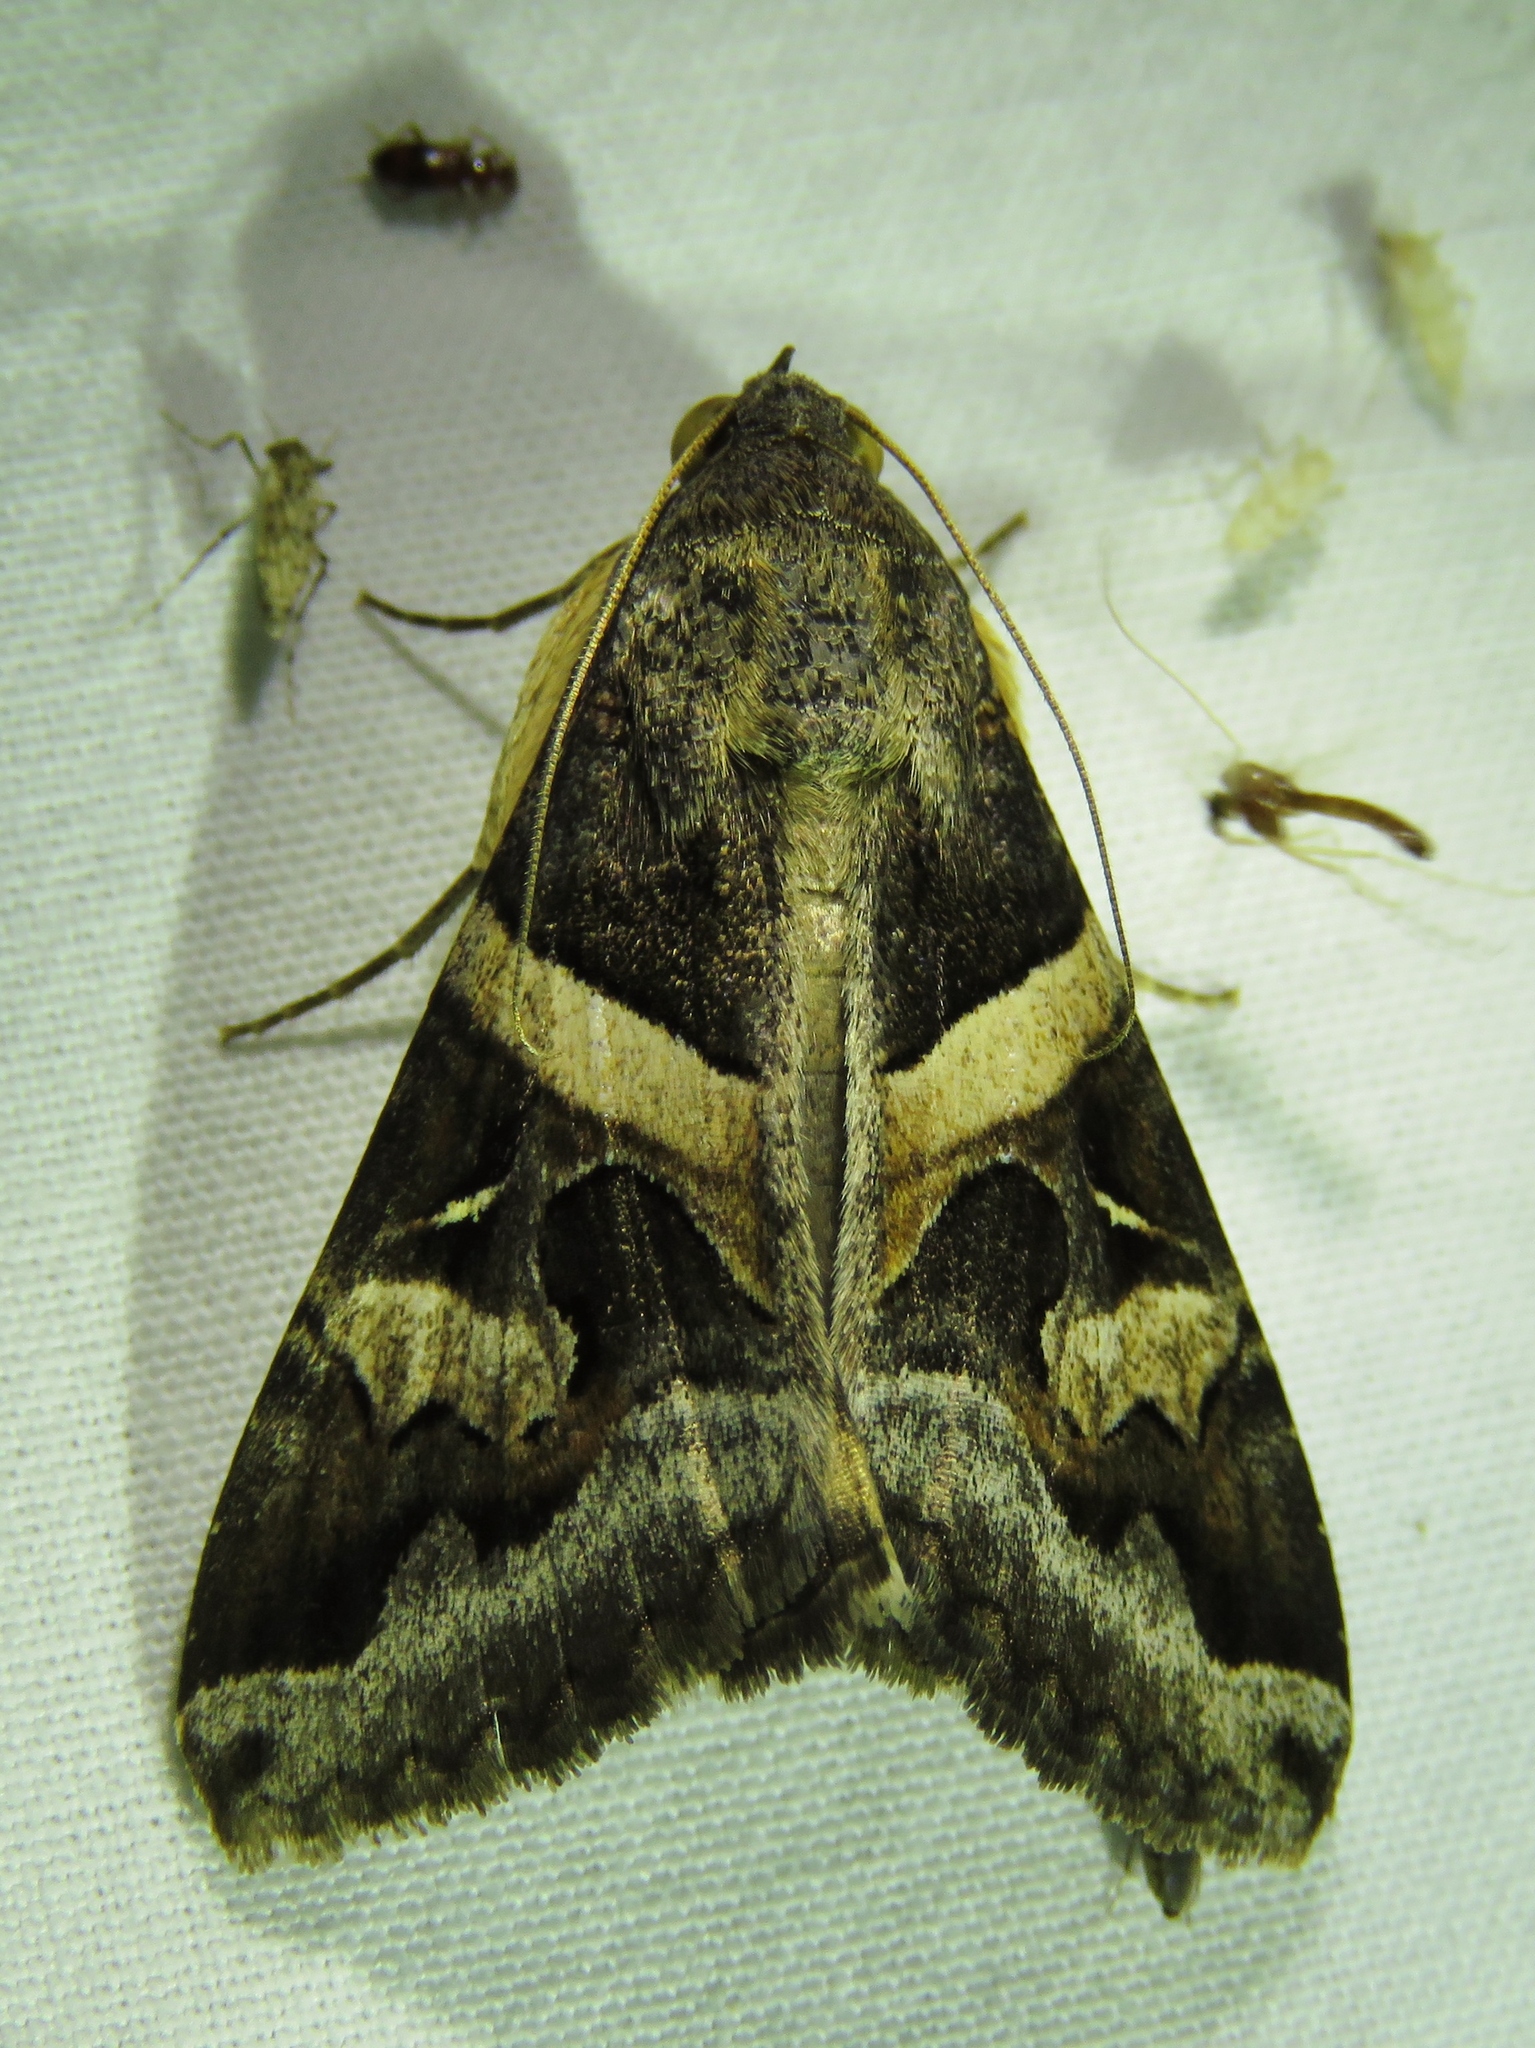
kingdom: Animalia
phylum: Arthropoda
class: Insecta
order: Lepidoptera
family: Erebidae
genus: Melipotis
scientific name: Melipotis indomita
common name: Moth
